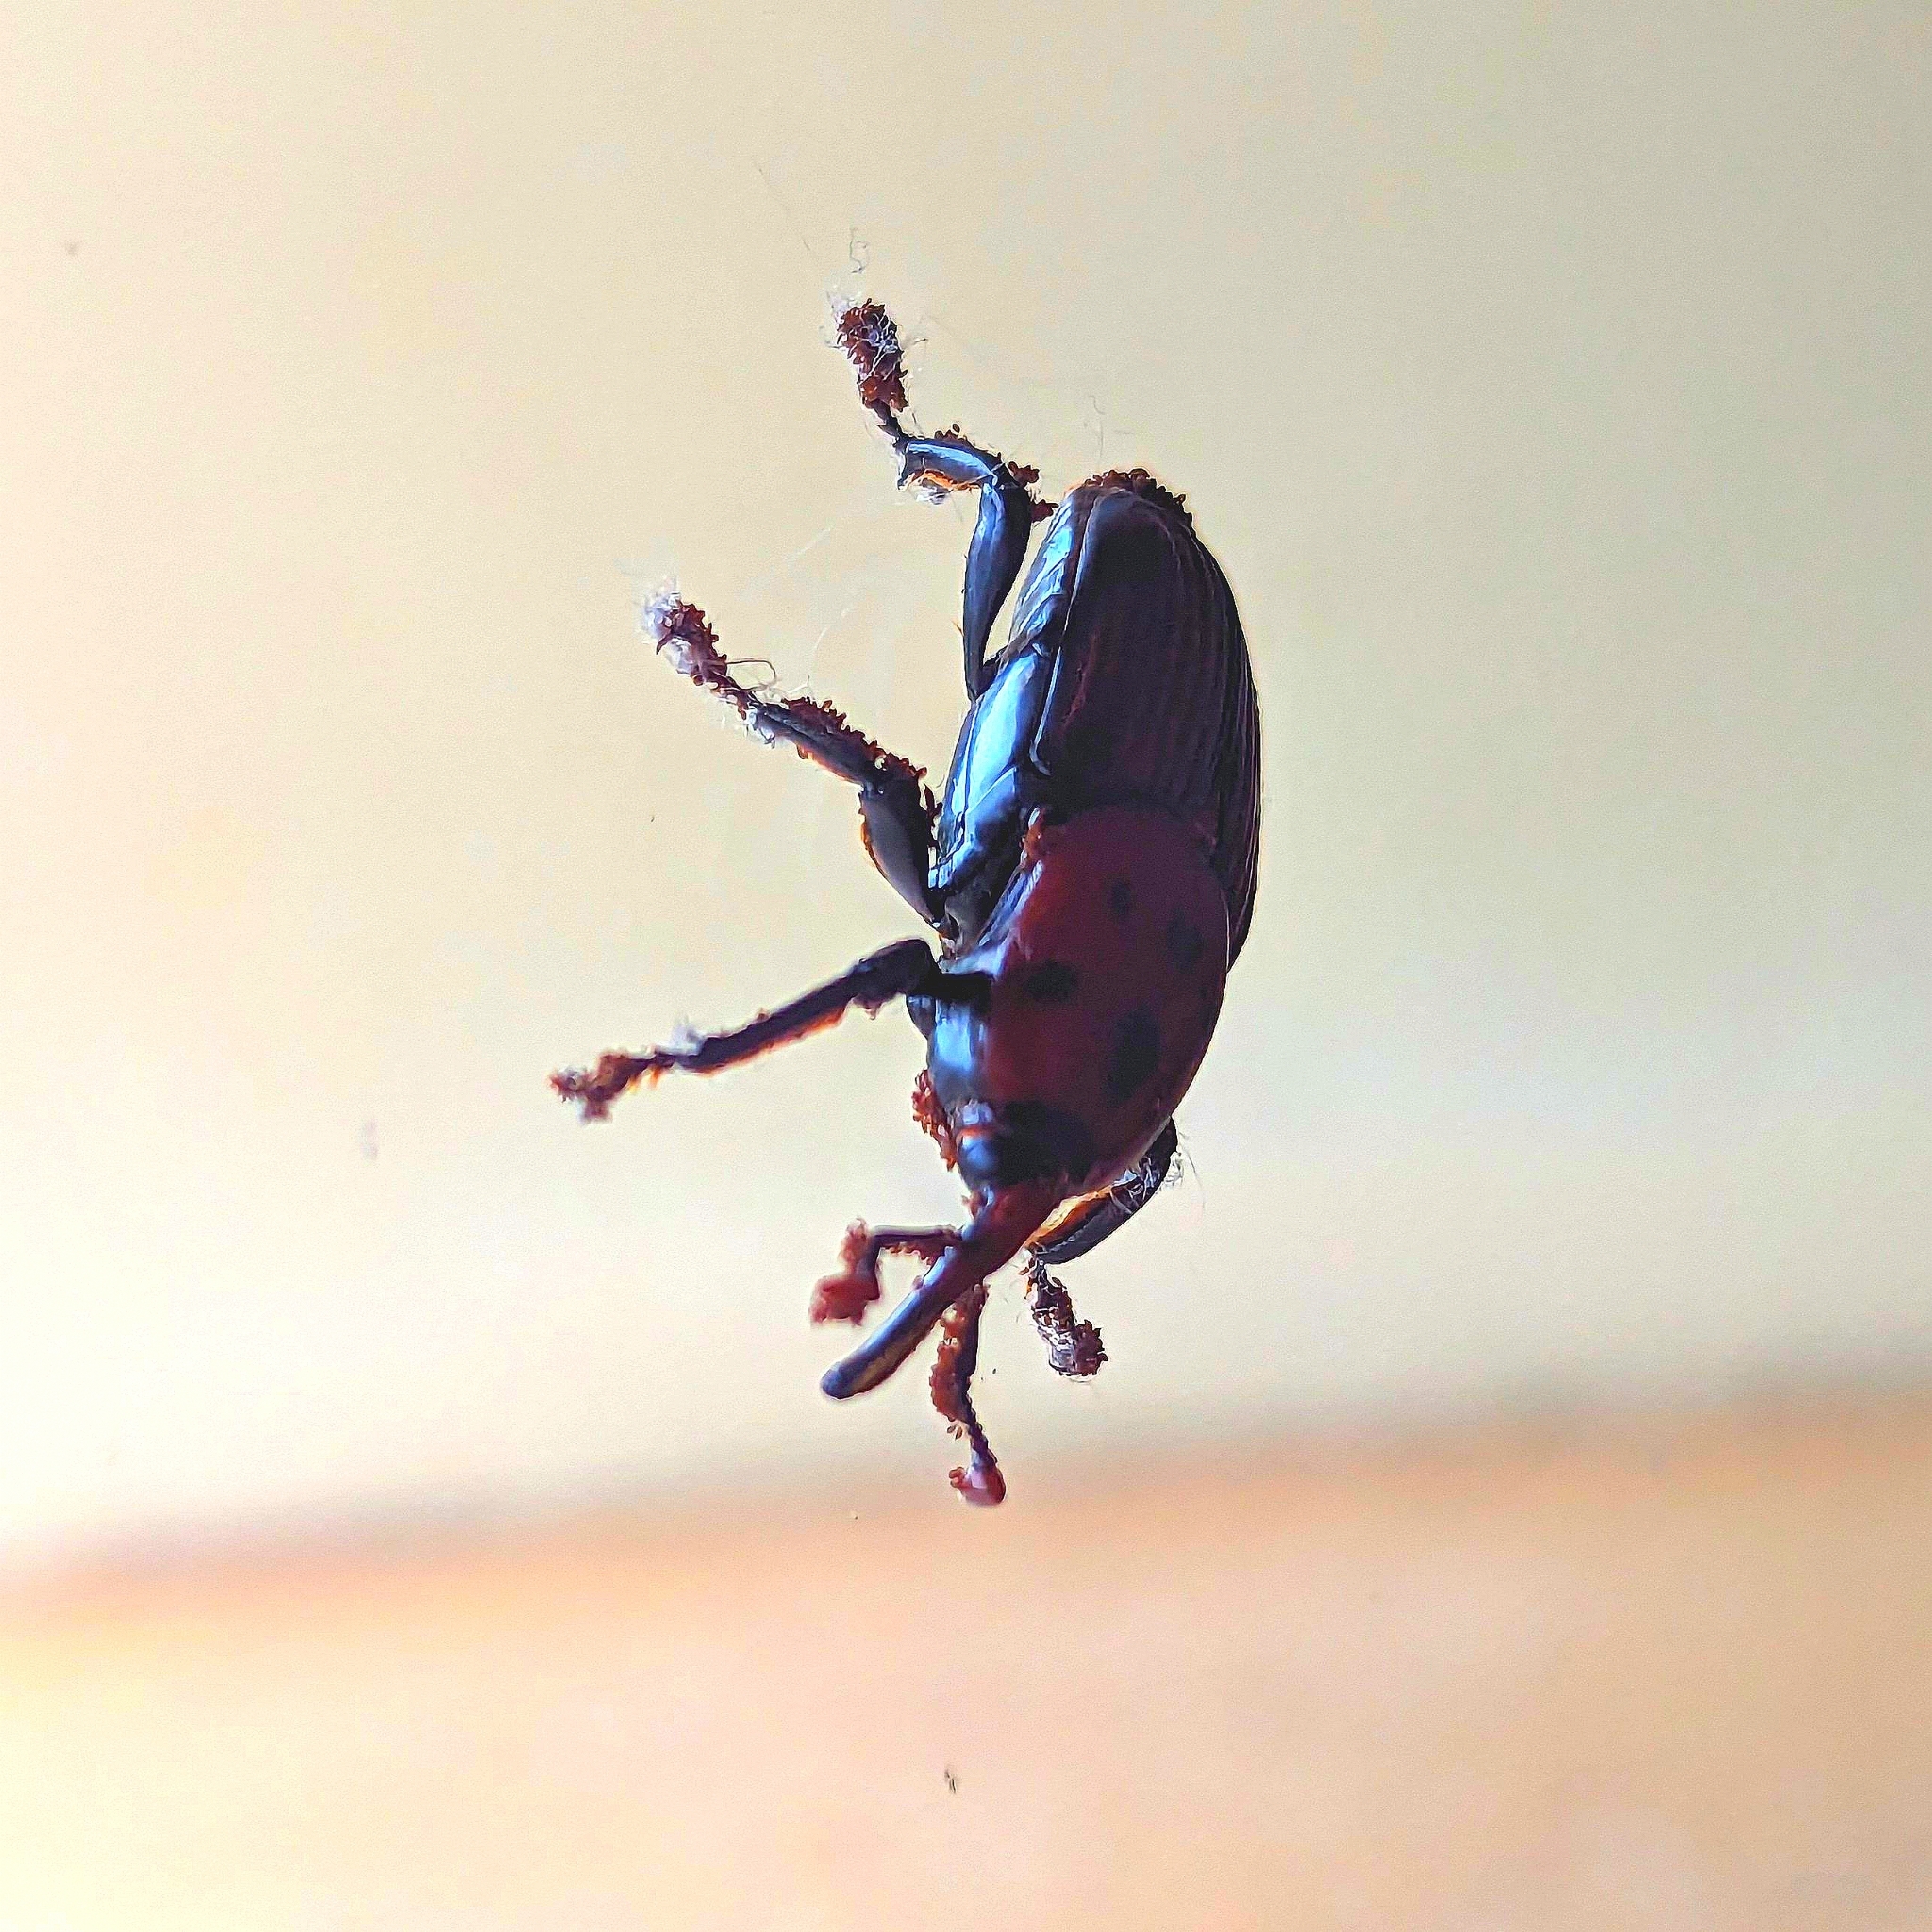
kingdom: Animalia
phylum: Arthropoda
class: Insecta
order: Coleoptera
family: Dryophthoridae
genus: Rhynchophorus
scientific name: Rhynchophorus ferrugineus
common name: Red palm weevil
